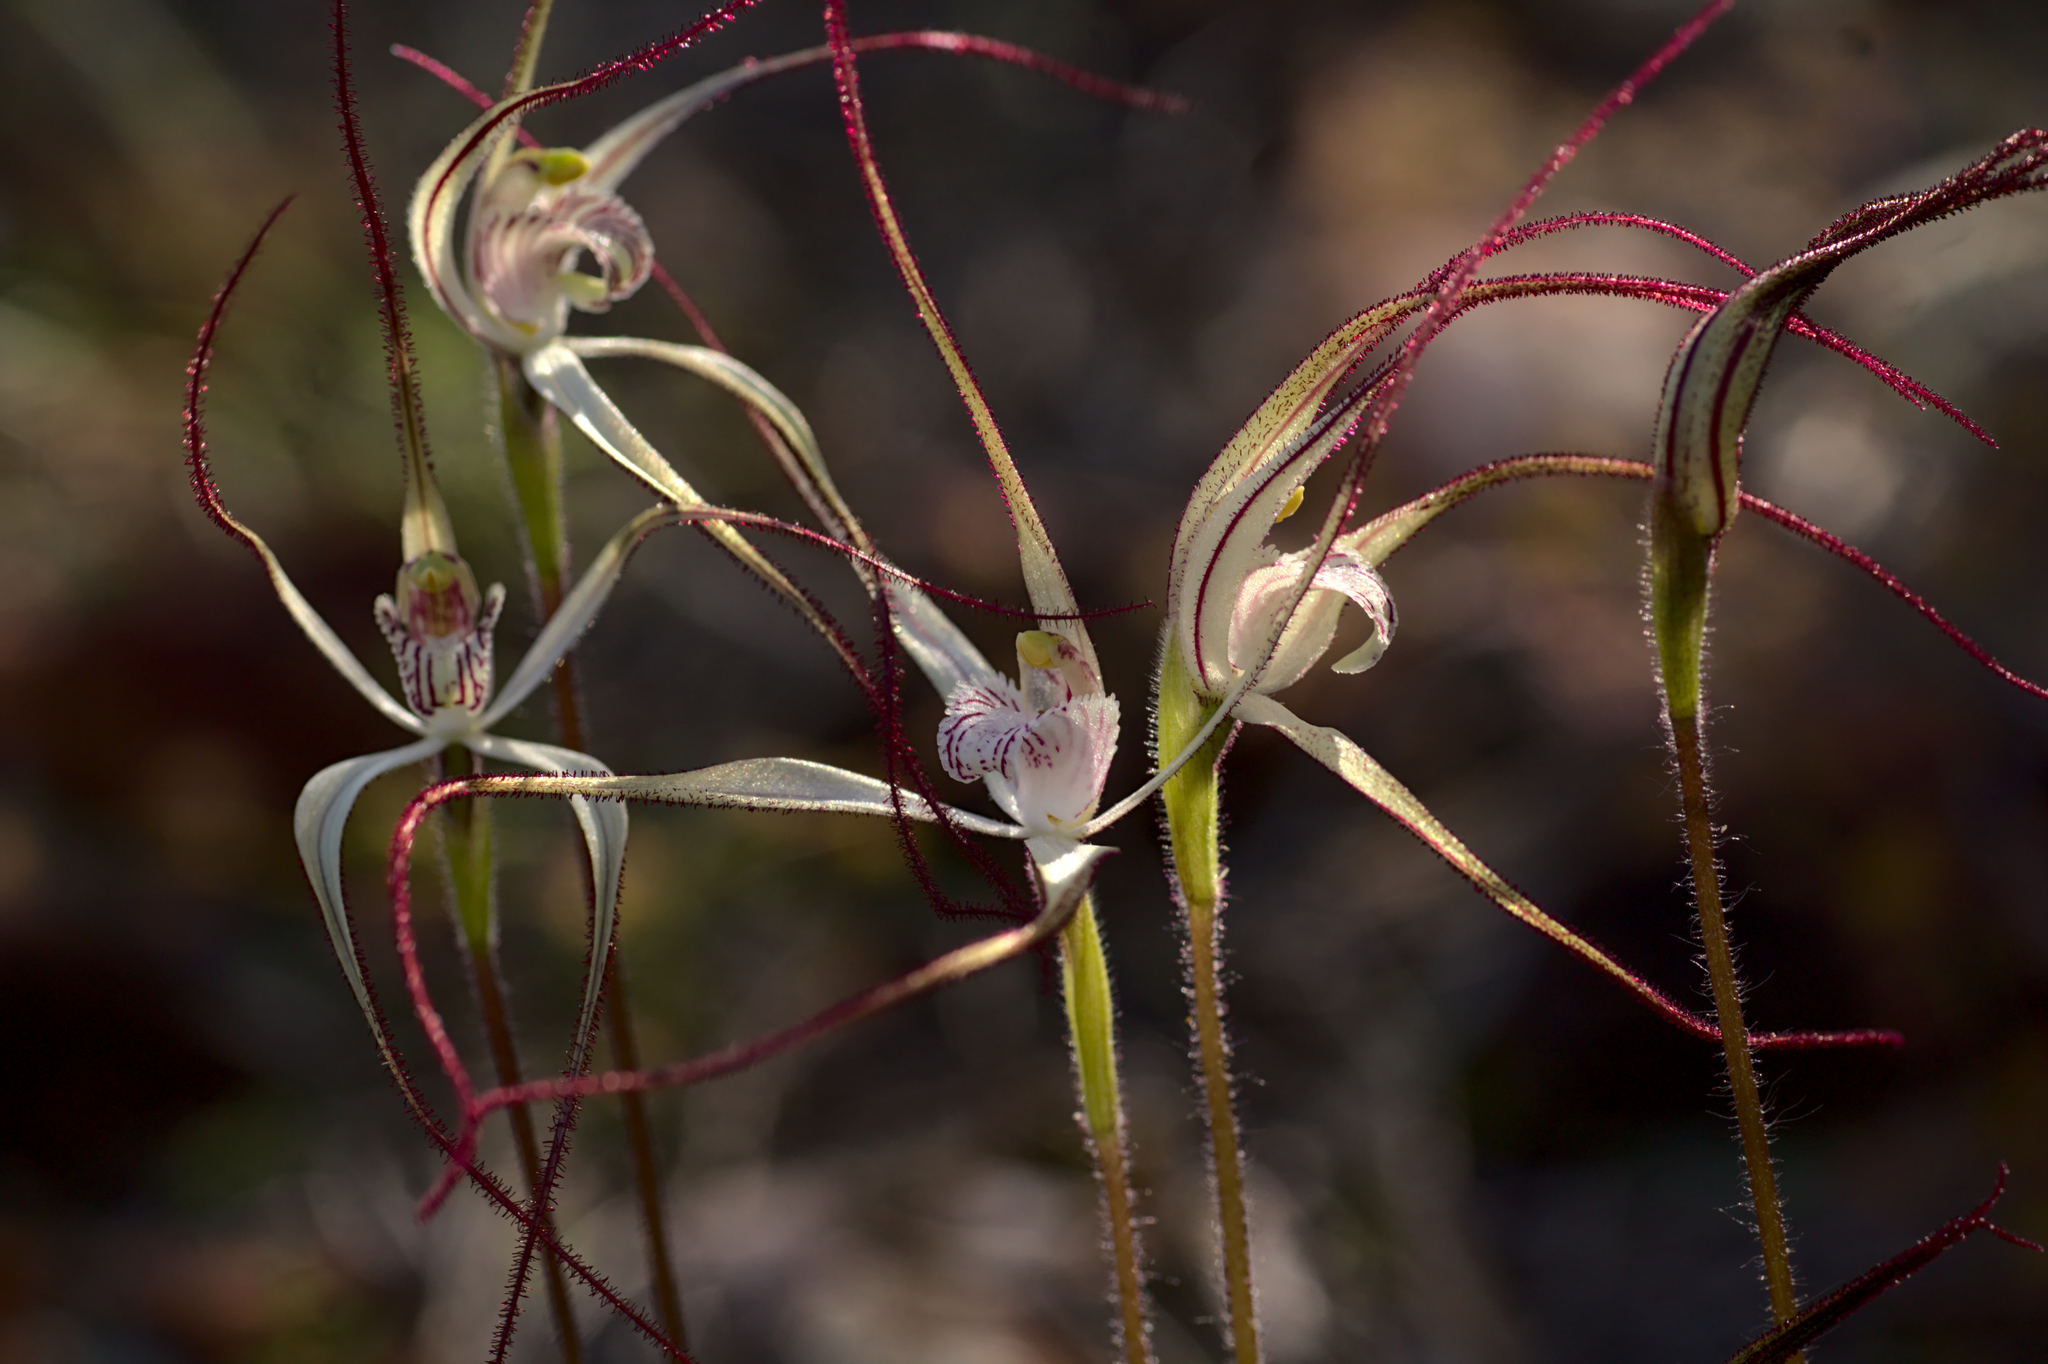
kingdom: Plantae
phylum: Tracheophyta
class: Liliopsida
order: Asparagales
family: Orchidaceae
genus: Caladenia
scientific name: Caladenia saxicola
